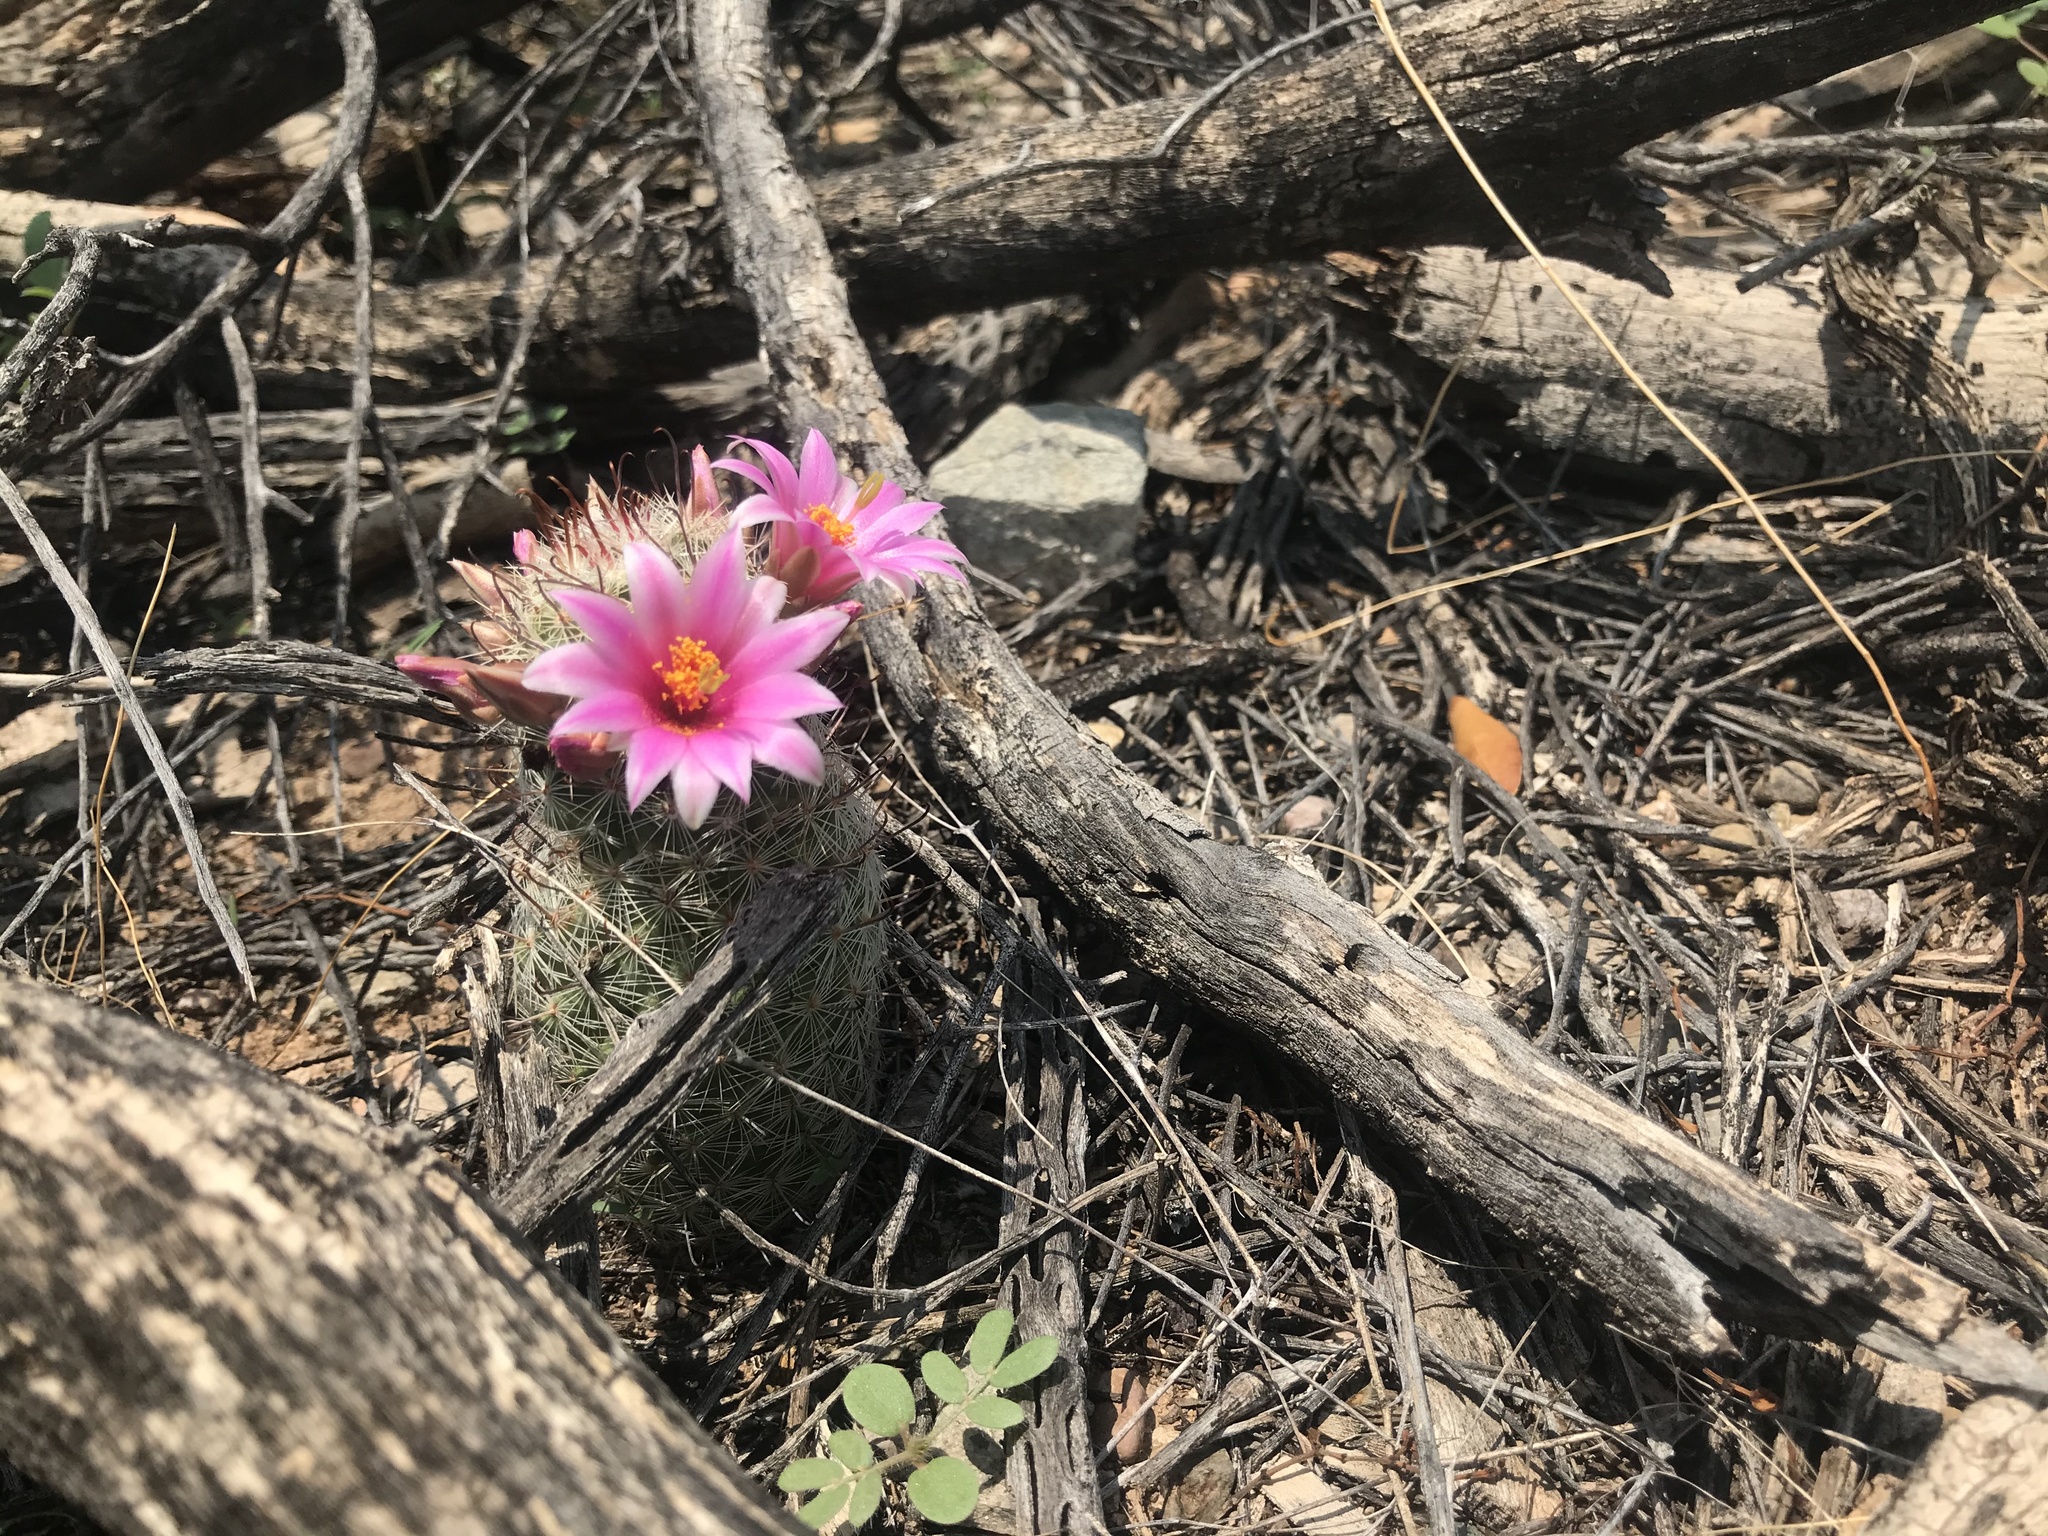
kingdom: Plantae
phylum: Tracheophyta
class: Magnoliopsida
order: Caryophyllales
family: Cactaceae
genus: Cochemiea
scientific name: Cochemiea grahamii
